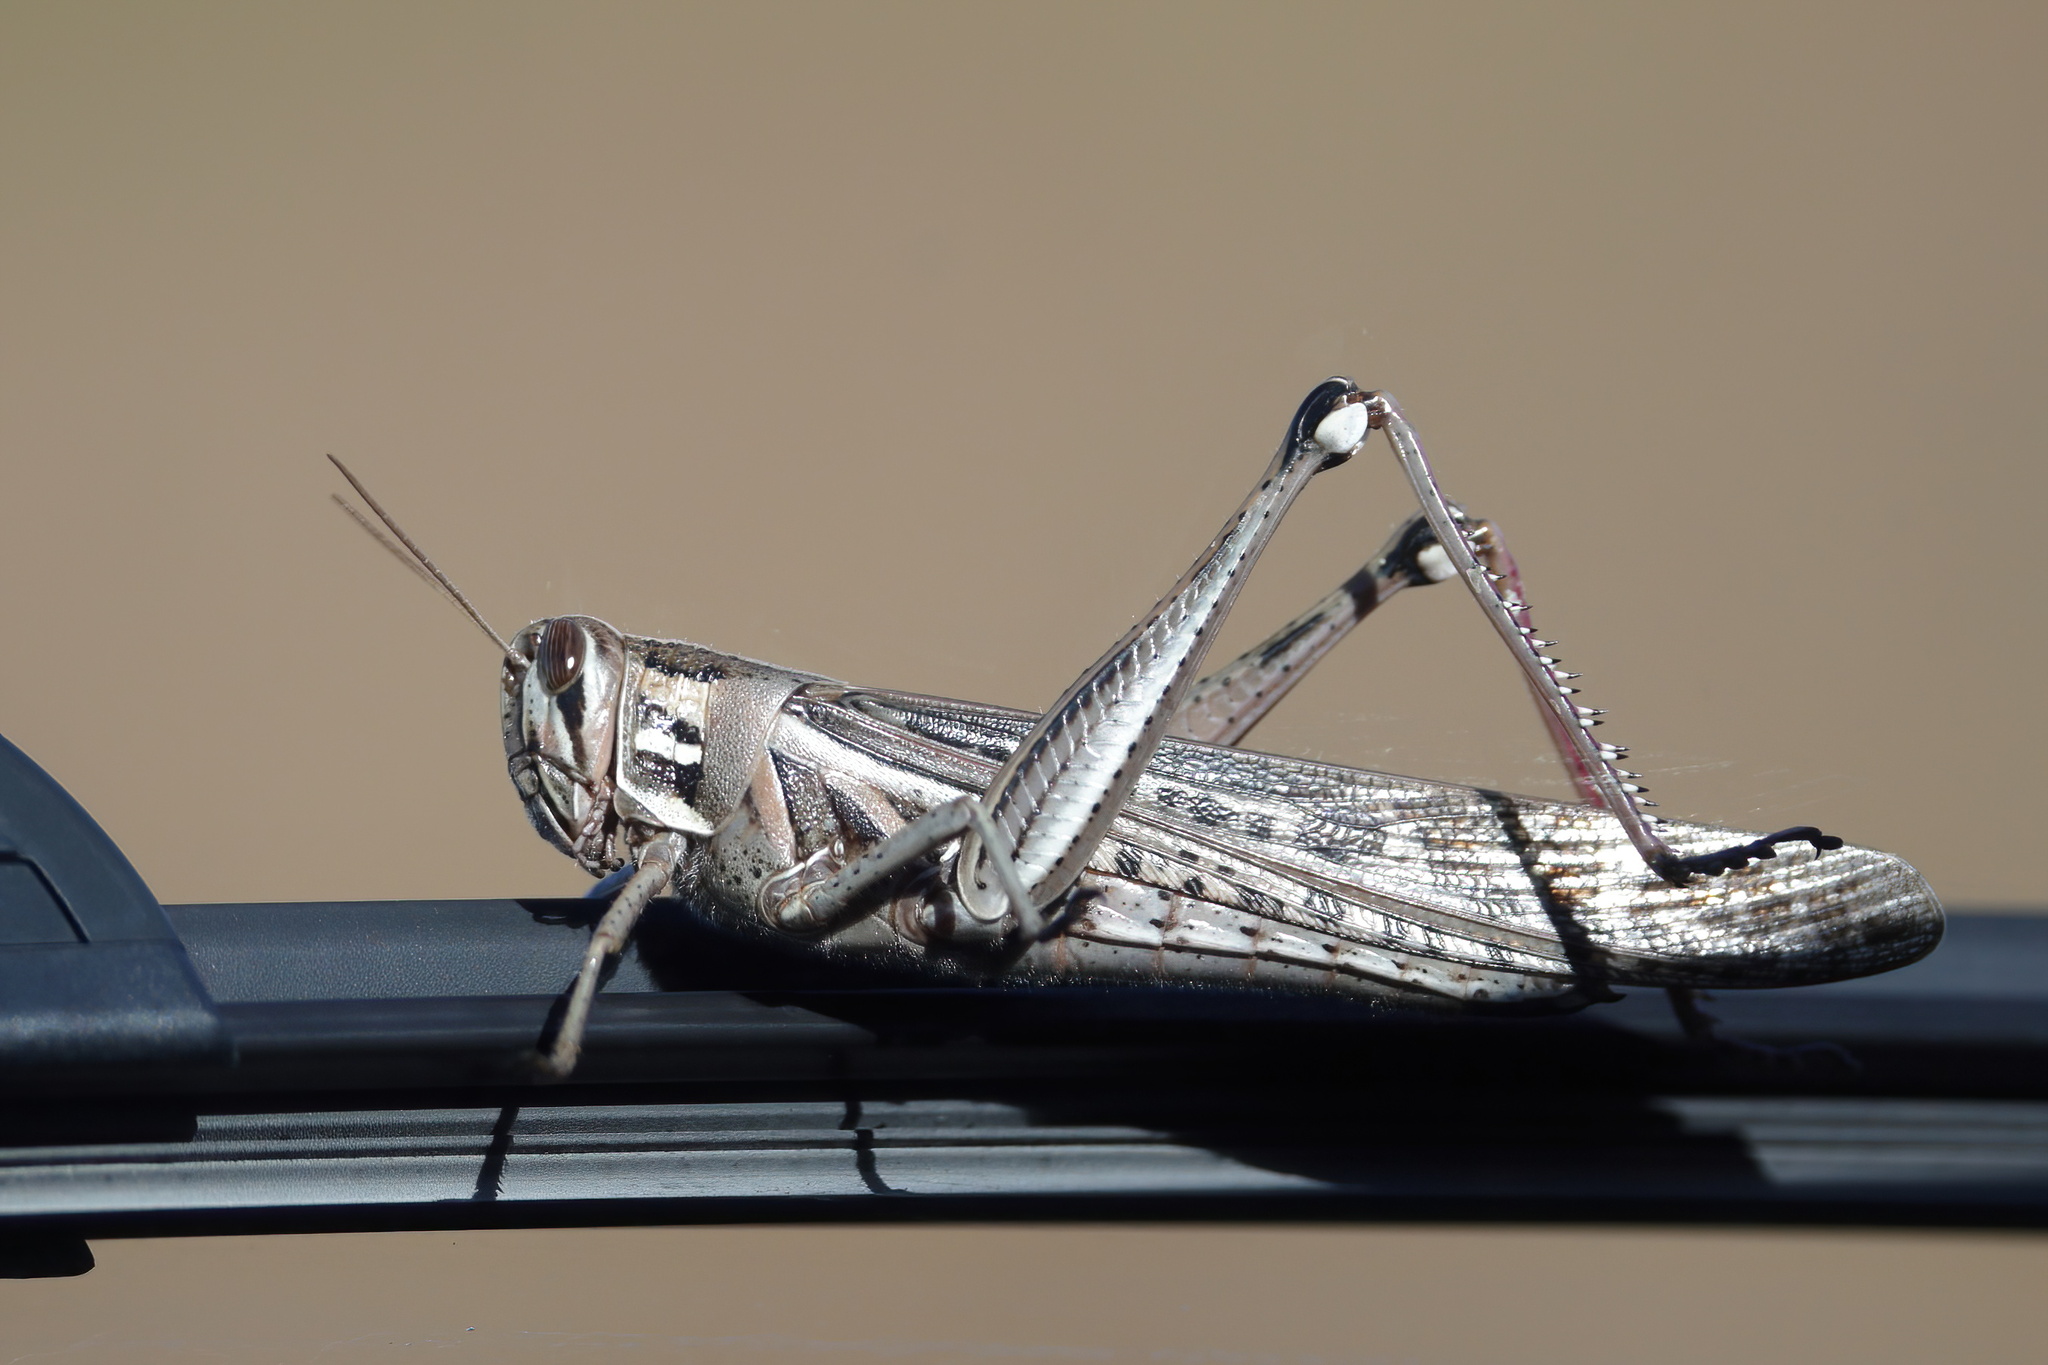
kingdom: Animalia
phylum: Arthropoda
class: Insecta
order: Orthoptera
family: Acrididae
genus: Schistocerca
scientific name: Schistocerca americana
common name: American bird locust
